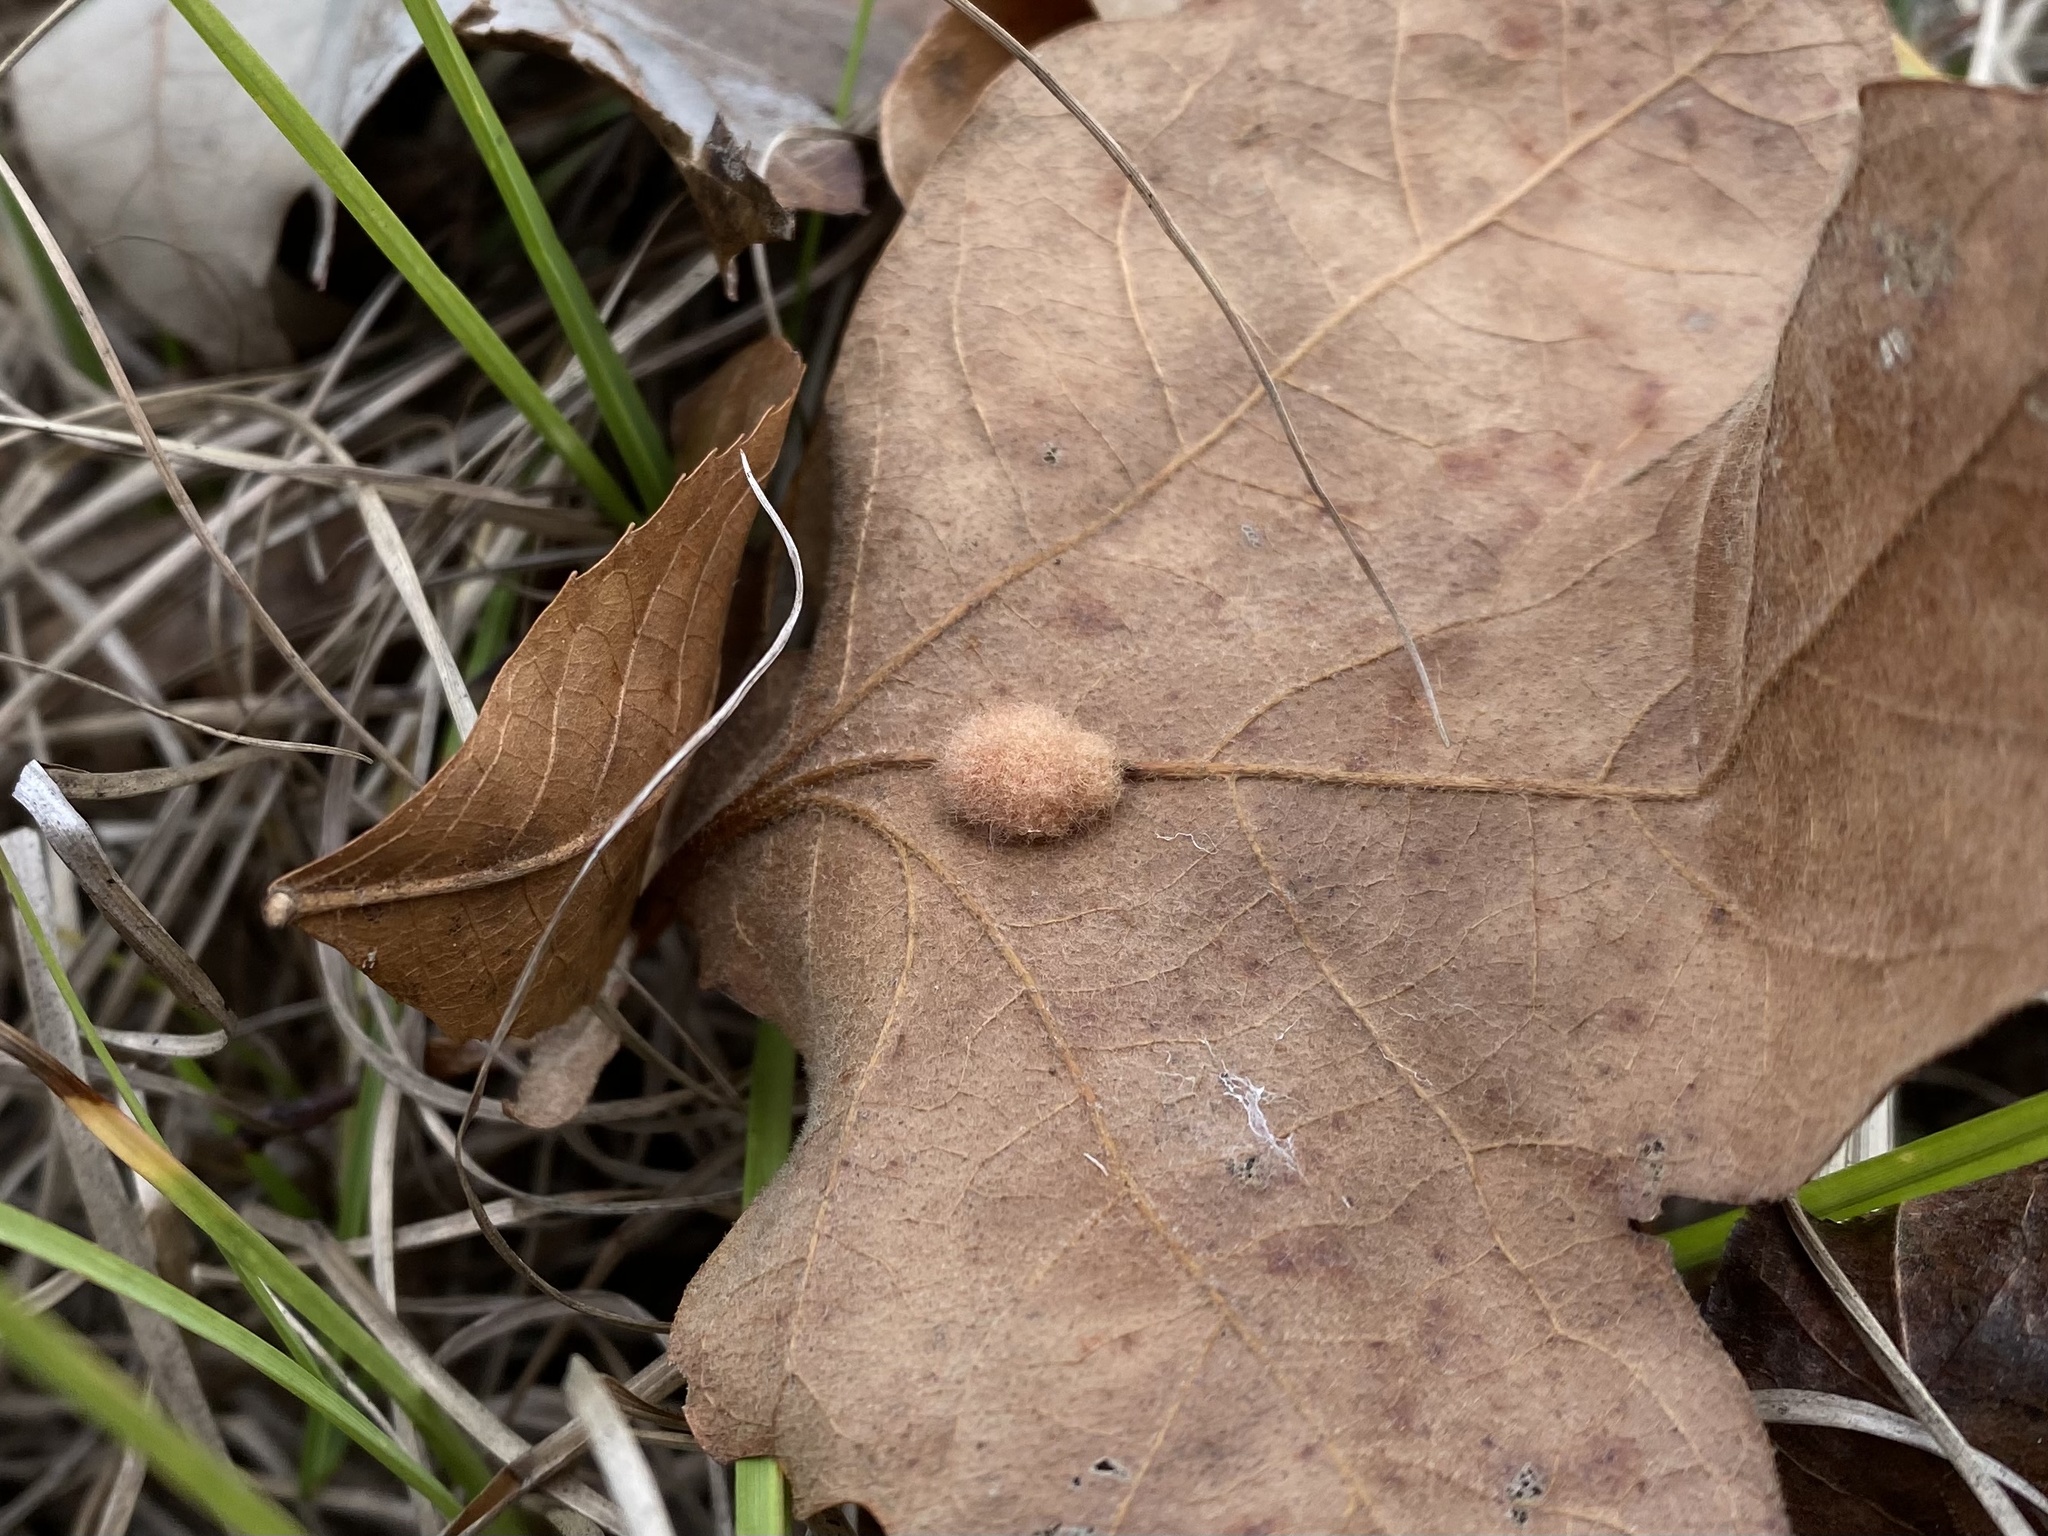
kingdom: Animalia
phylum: Arthropoda
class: Insecta
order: Hymenoptera
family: Cynipidae
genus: Andricus
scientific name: Andricus Druon pattoni
